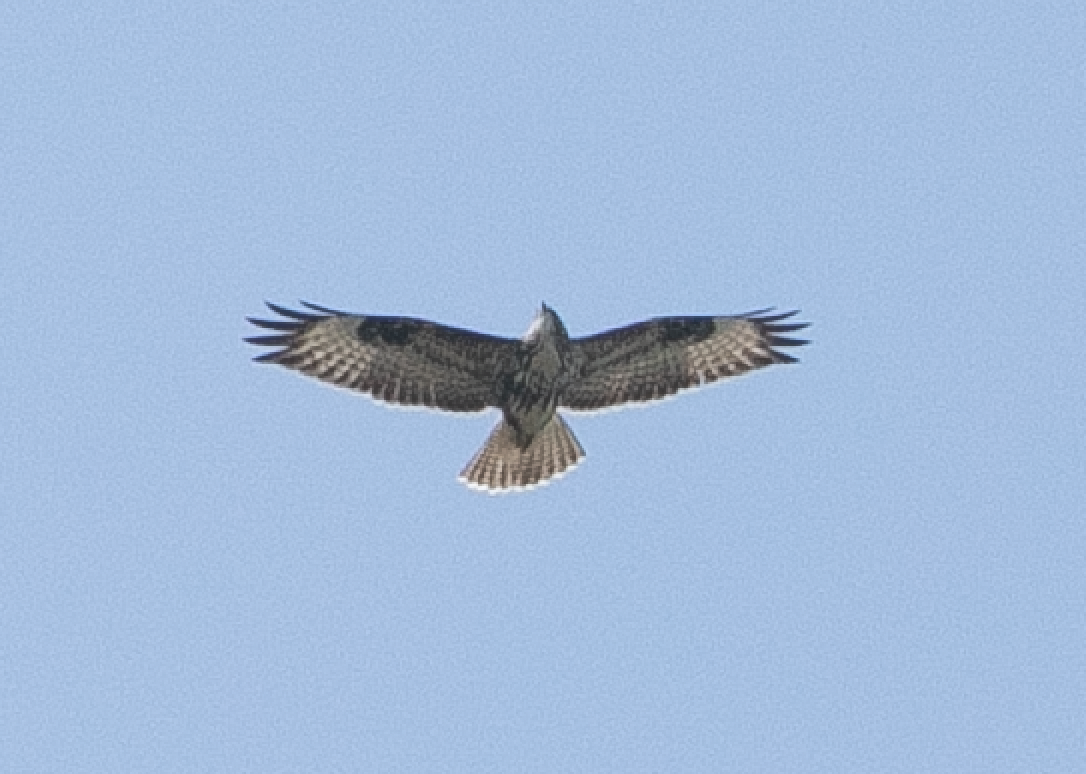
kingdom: Animalia
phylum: Chordata
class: Aves
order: Accipitriformes
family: Accipitridae
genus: Buteo
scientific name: Buteo buteo
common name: Common buzzard
